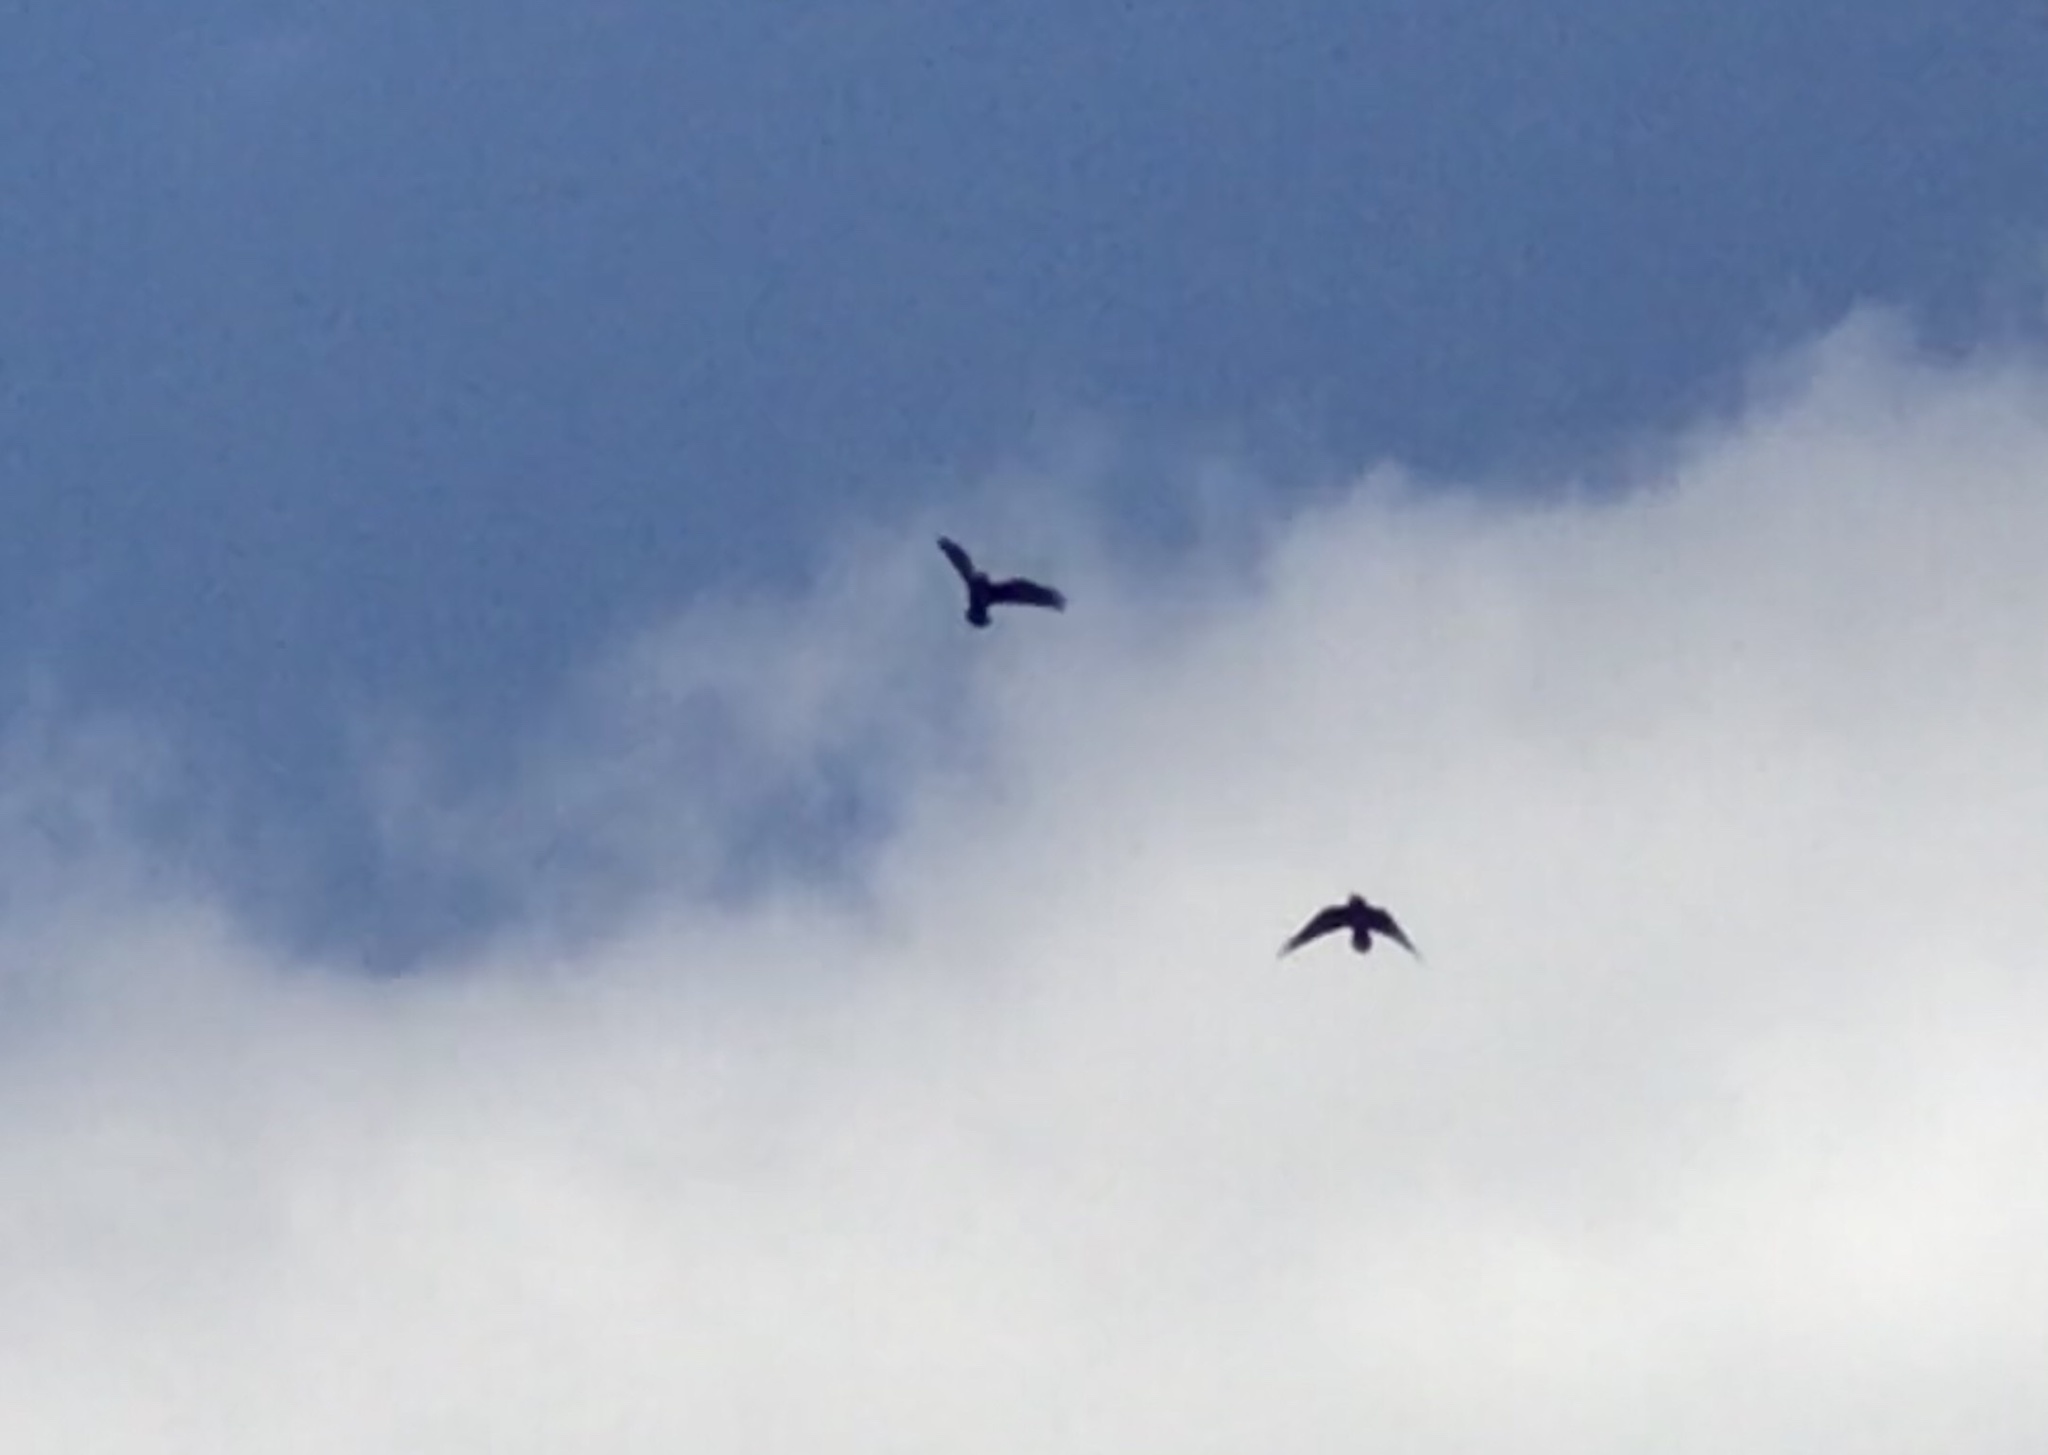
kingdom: Animalia
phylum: Chordata
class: Aves
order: Passeriformes
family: Corvidae
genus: Corvus
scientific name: Corvus corax
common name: Common raven
